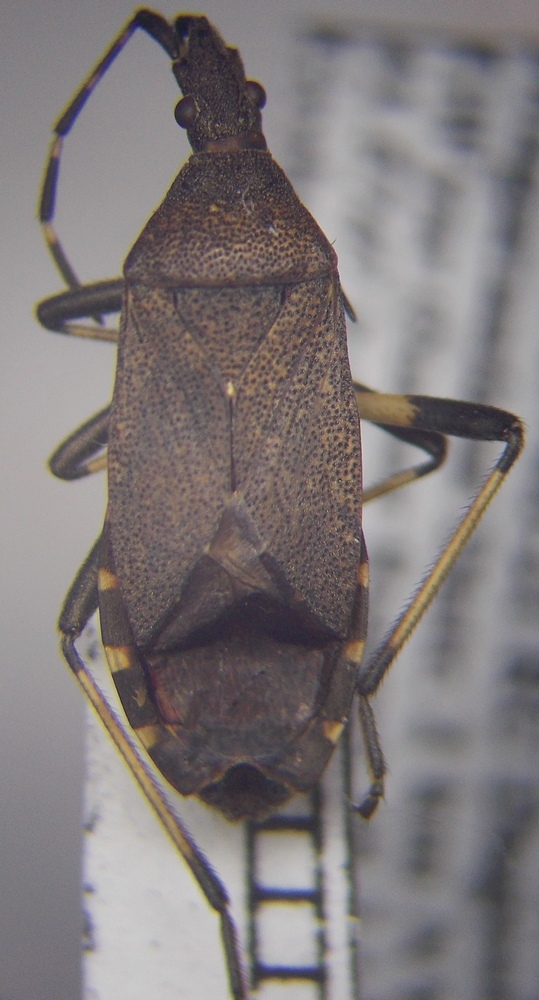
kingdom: Animalia
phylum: Arthropoda
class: Insecta
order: Hemiptera
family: Stenocephalidae
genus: Dicranocephalus
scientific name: Dicranocephalus medius
